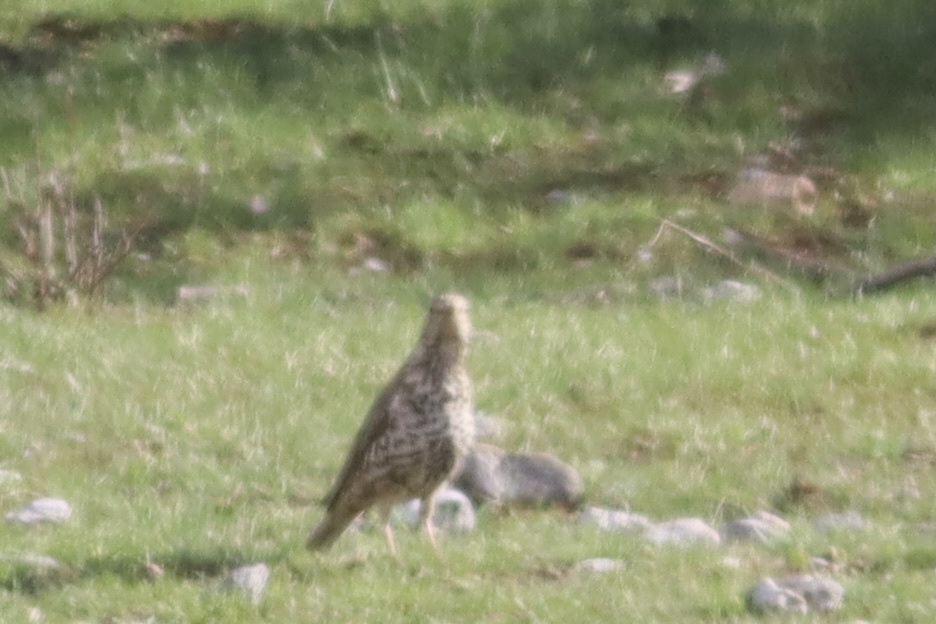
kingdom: Animalia
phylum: Chordata
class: Aves
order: Passeriformes
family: Turdidae
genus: Turdus
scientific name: Turdus viscivorus
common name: Mistle thrush
